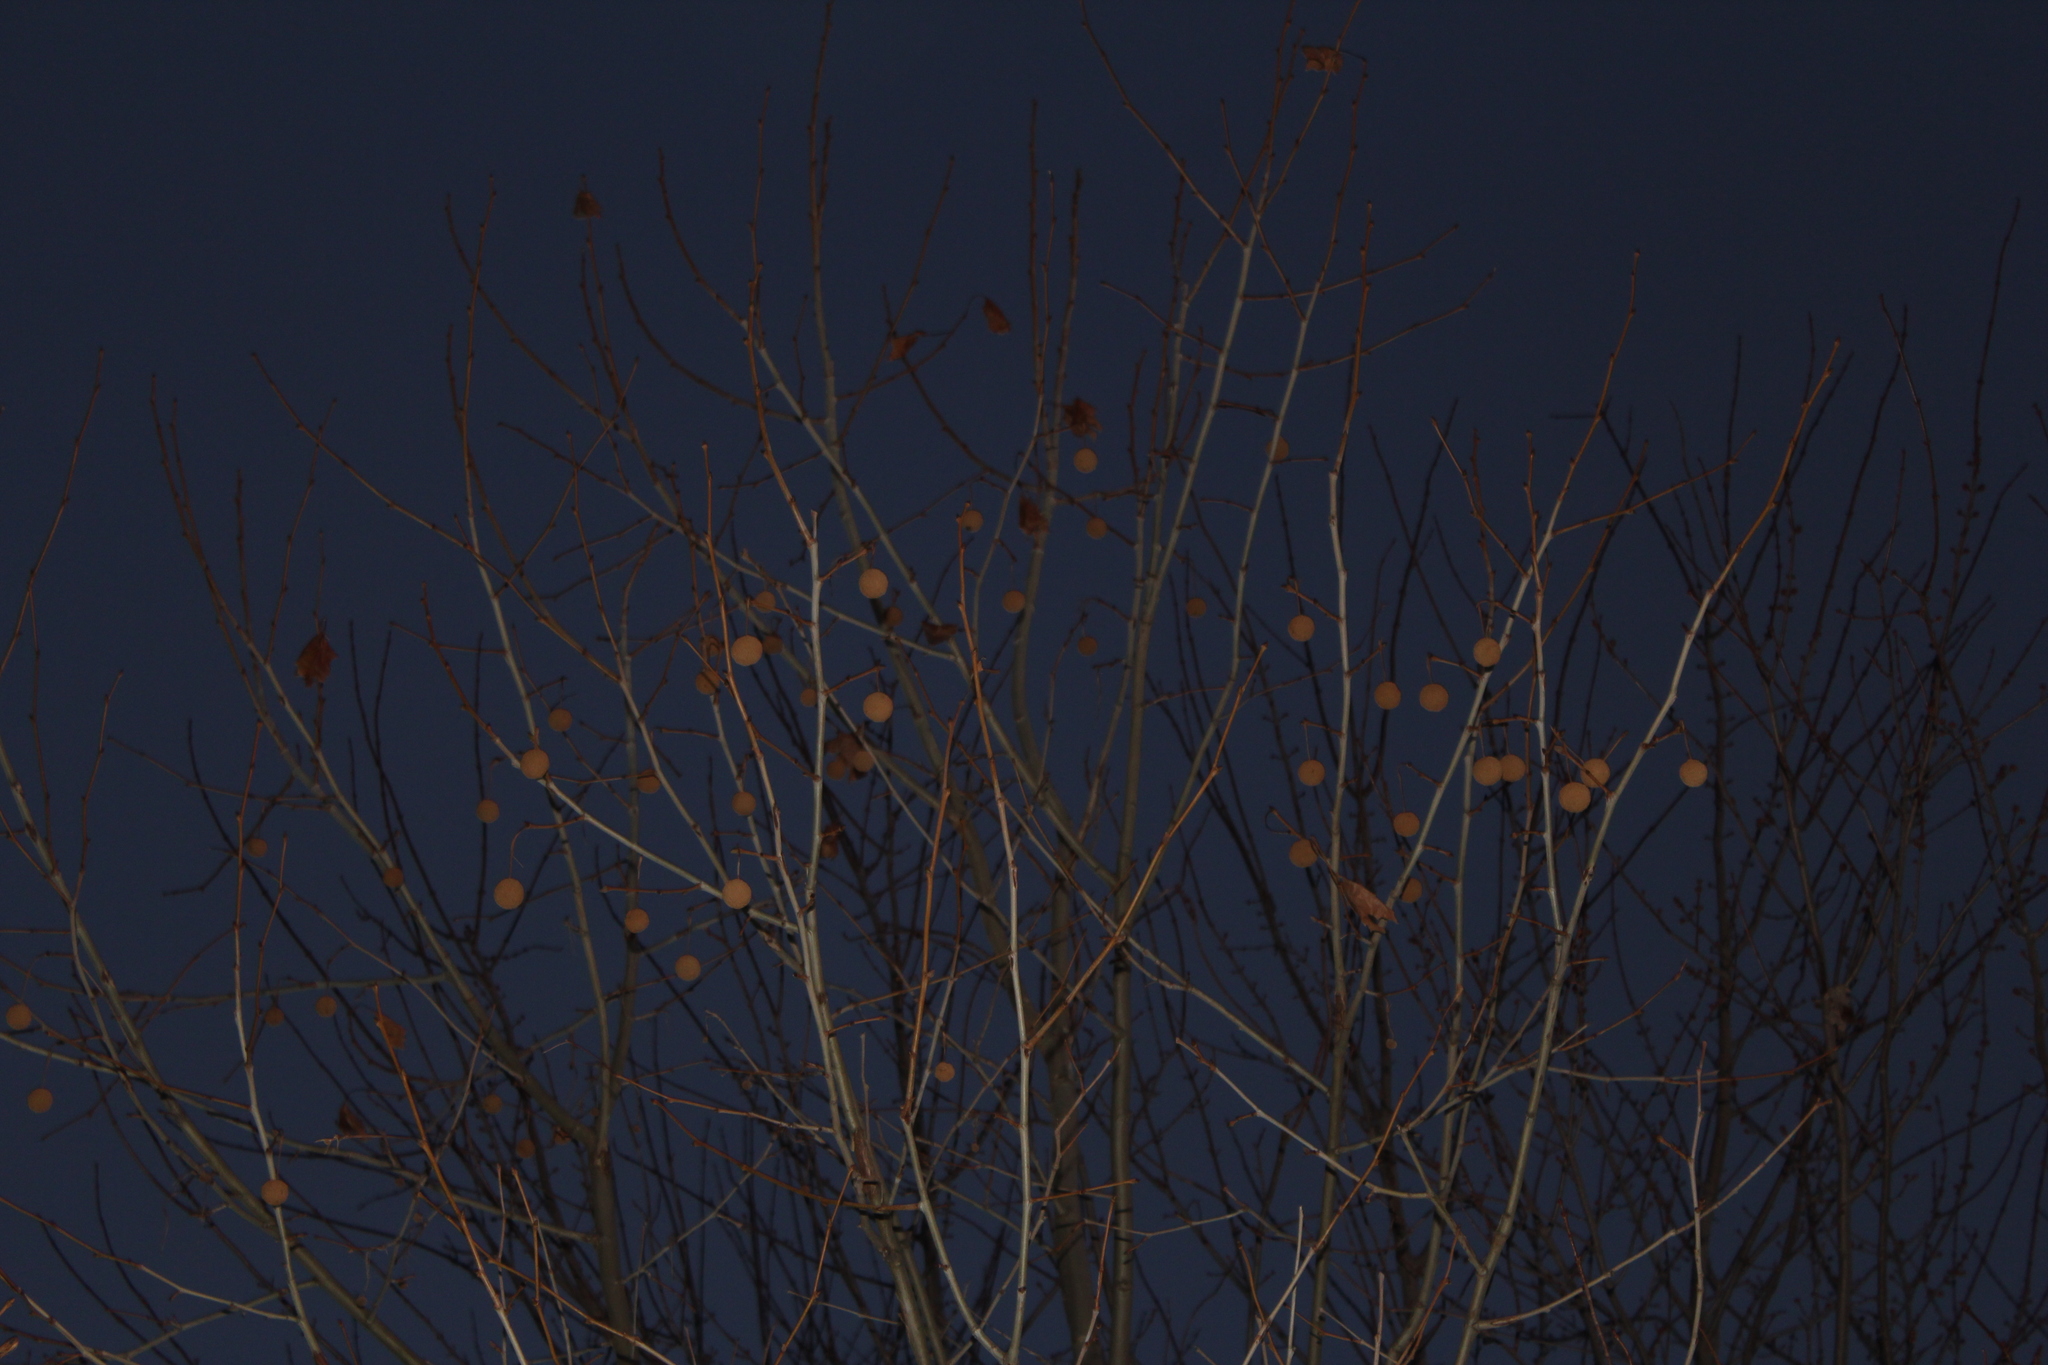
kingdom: Plantae
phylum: Tracheophyta
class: Magnoliopsida
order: Proteales
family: Platanaceae
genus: Platanus
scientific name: Platanus occidentalis
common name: American sycamore
